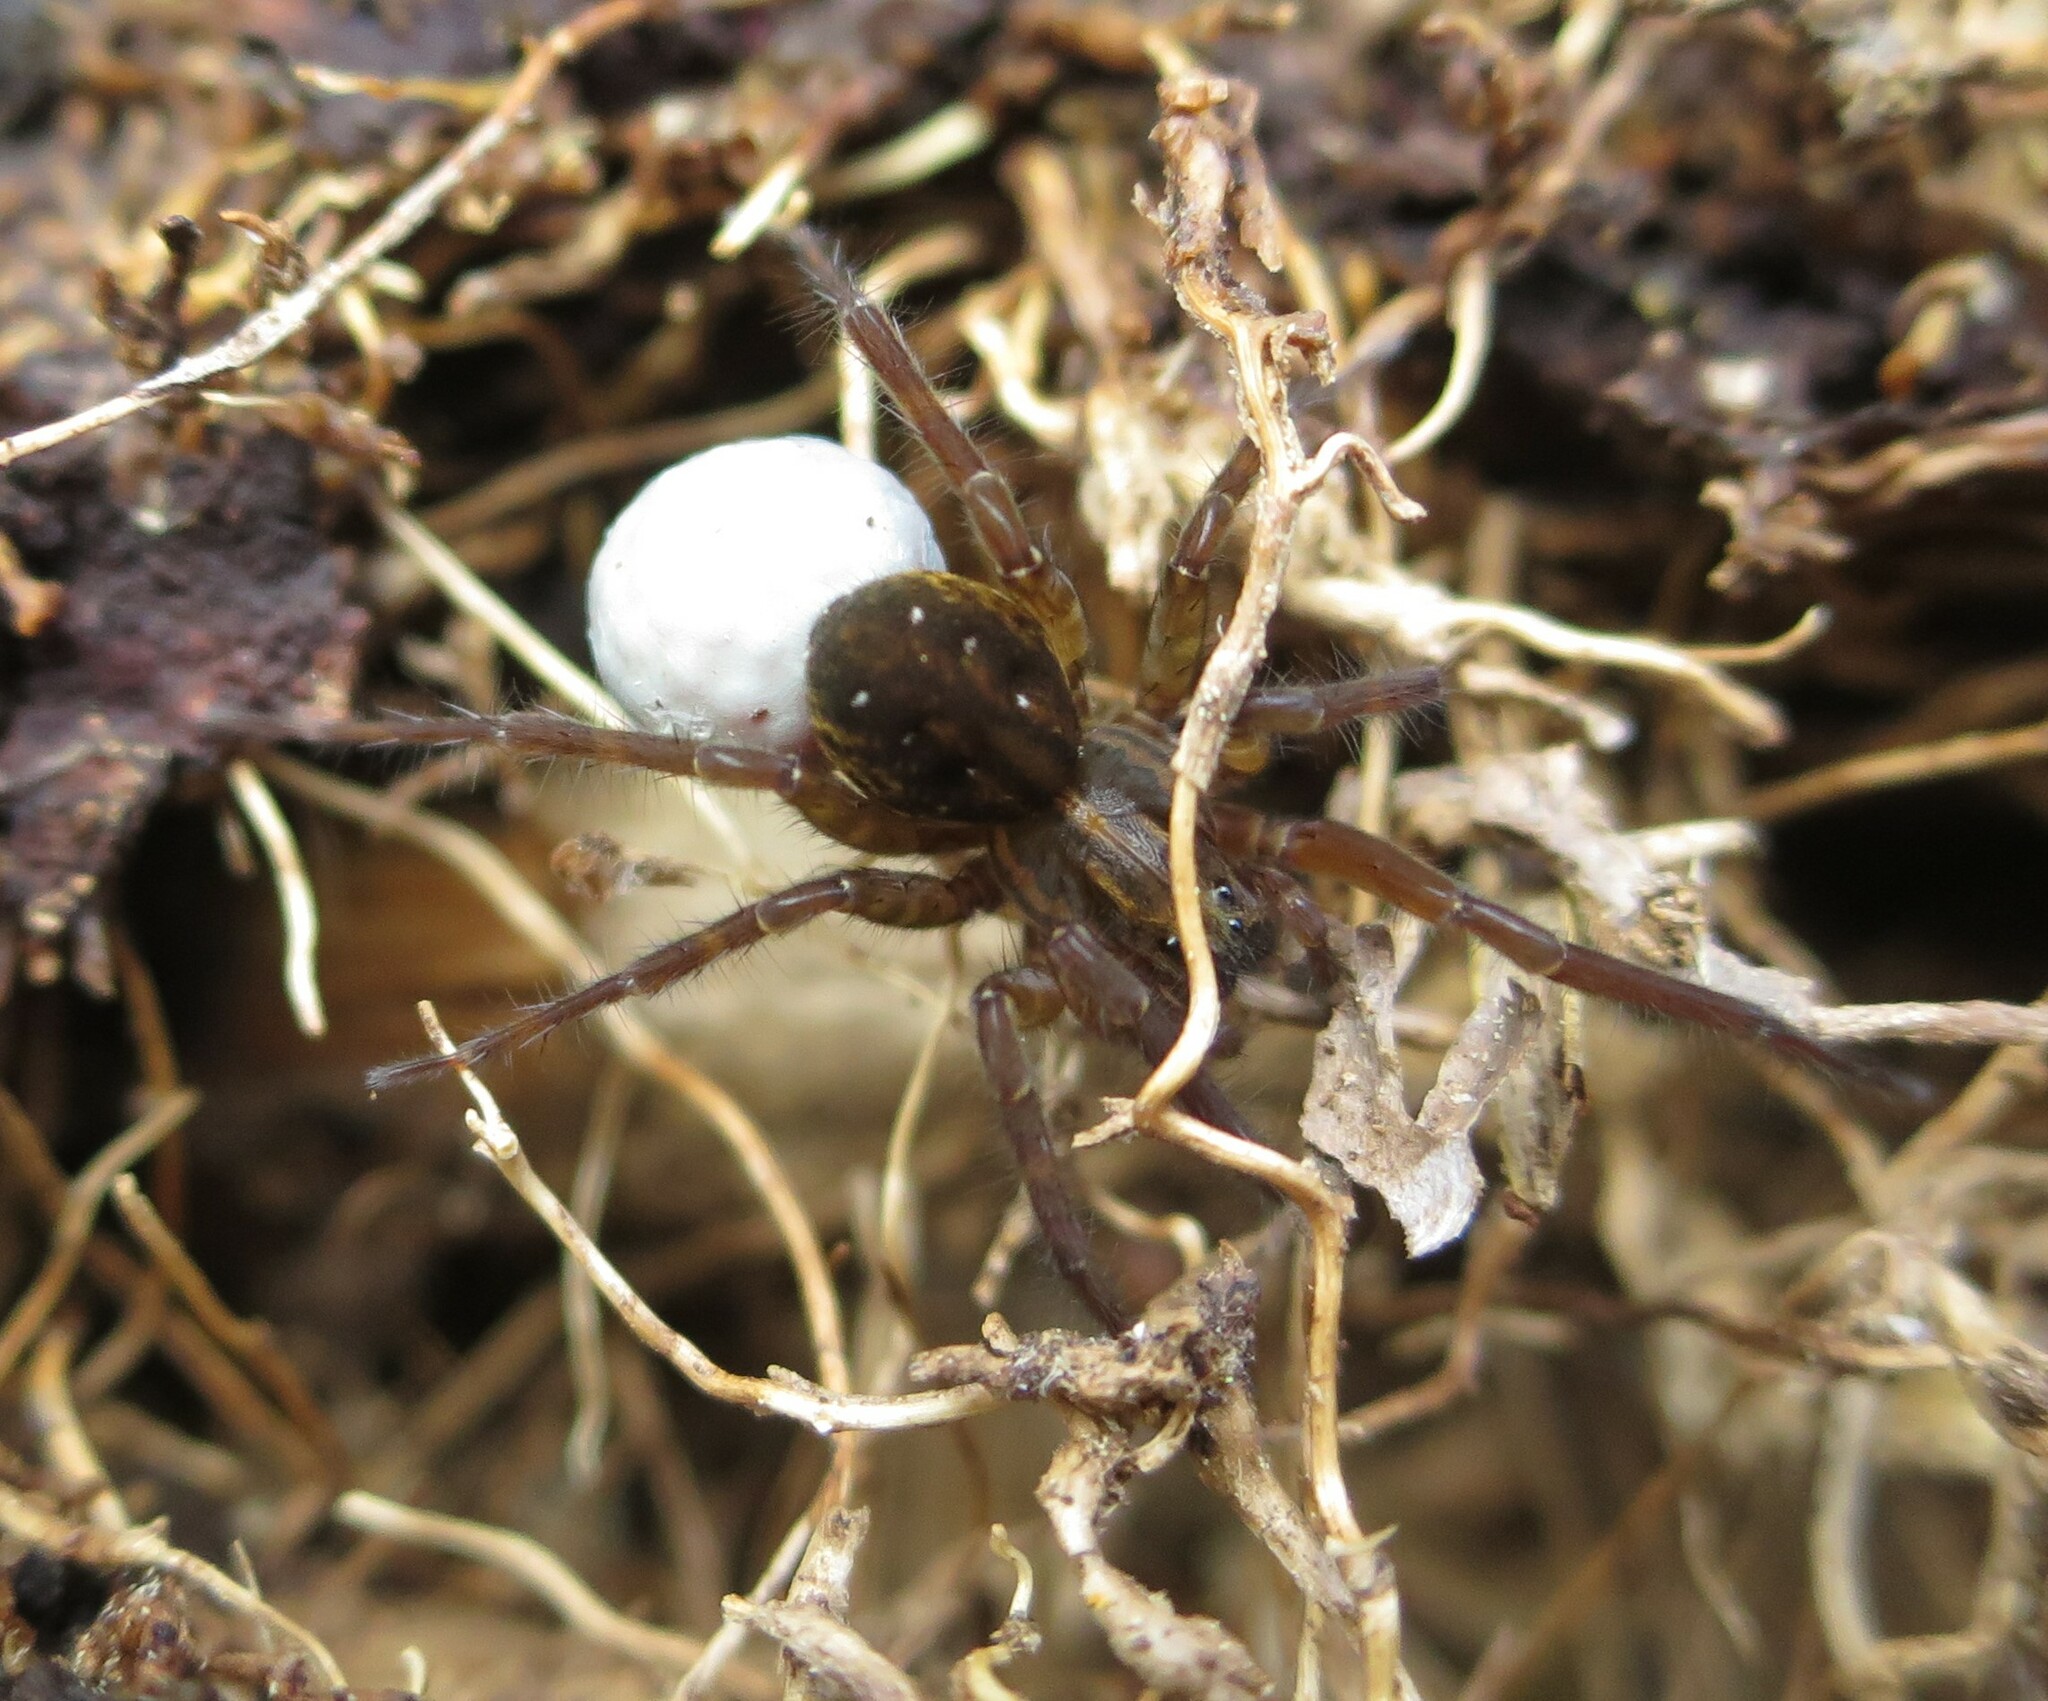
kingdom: Animalia
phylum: Arthropoda
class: Arachnida
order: Araneae
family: Lycosidae
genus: Allotrochosina
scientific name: Allotrochosina schauinslandi
